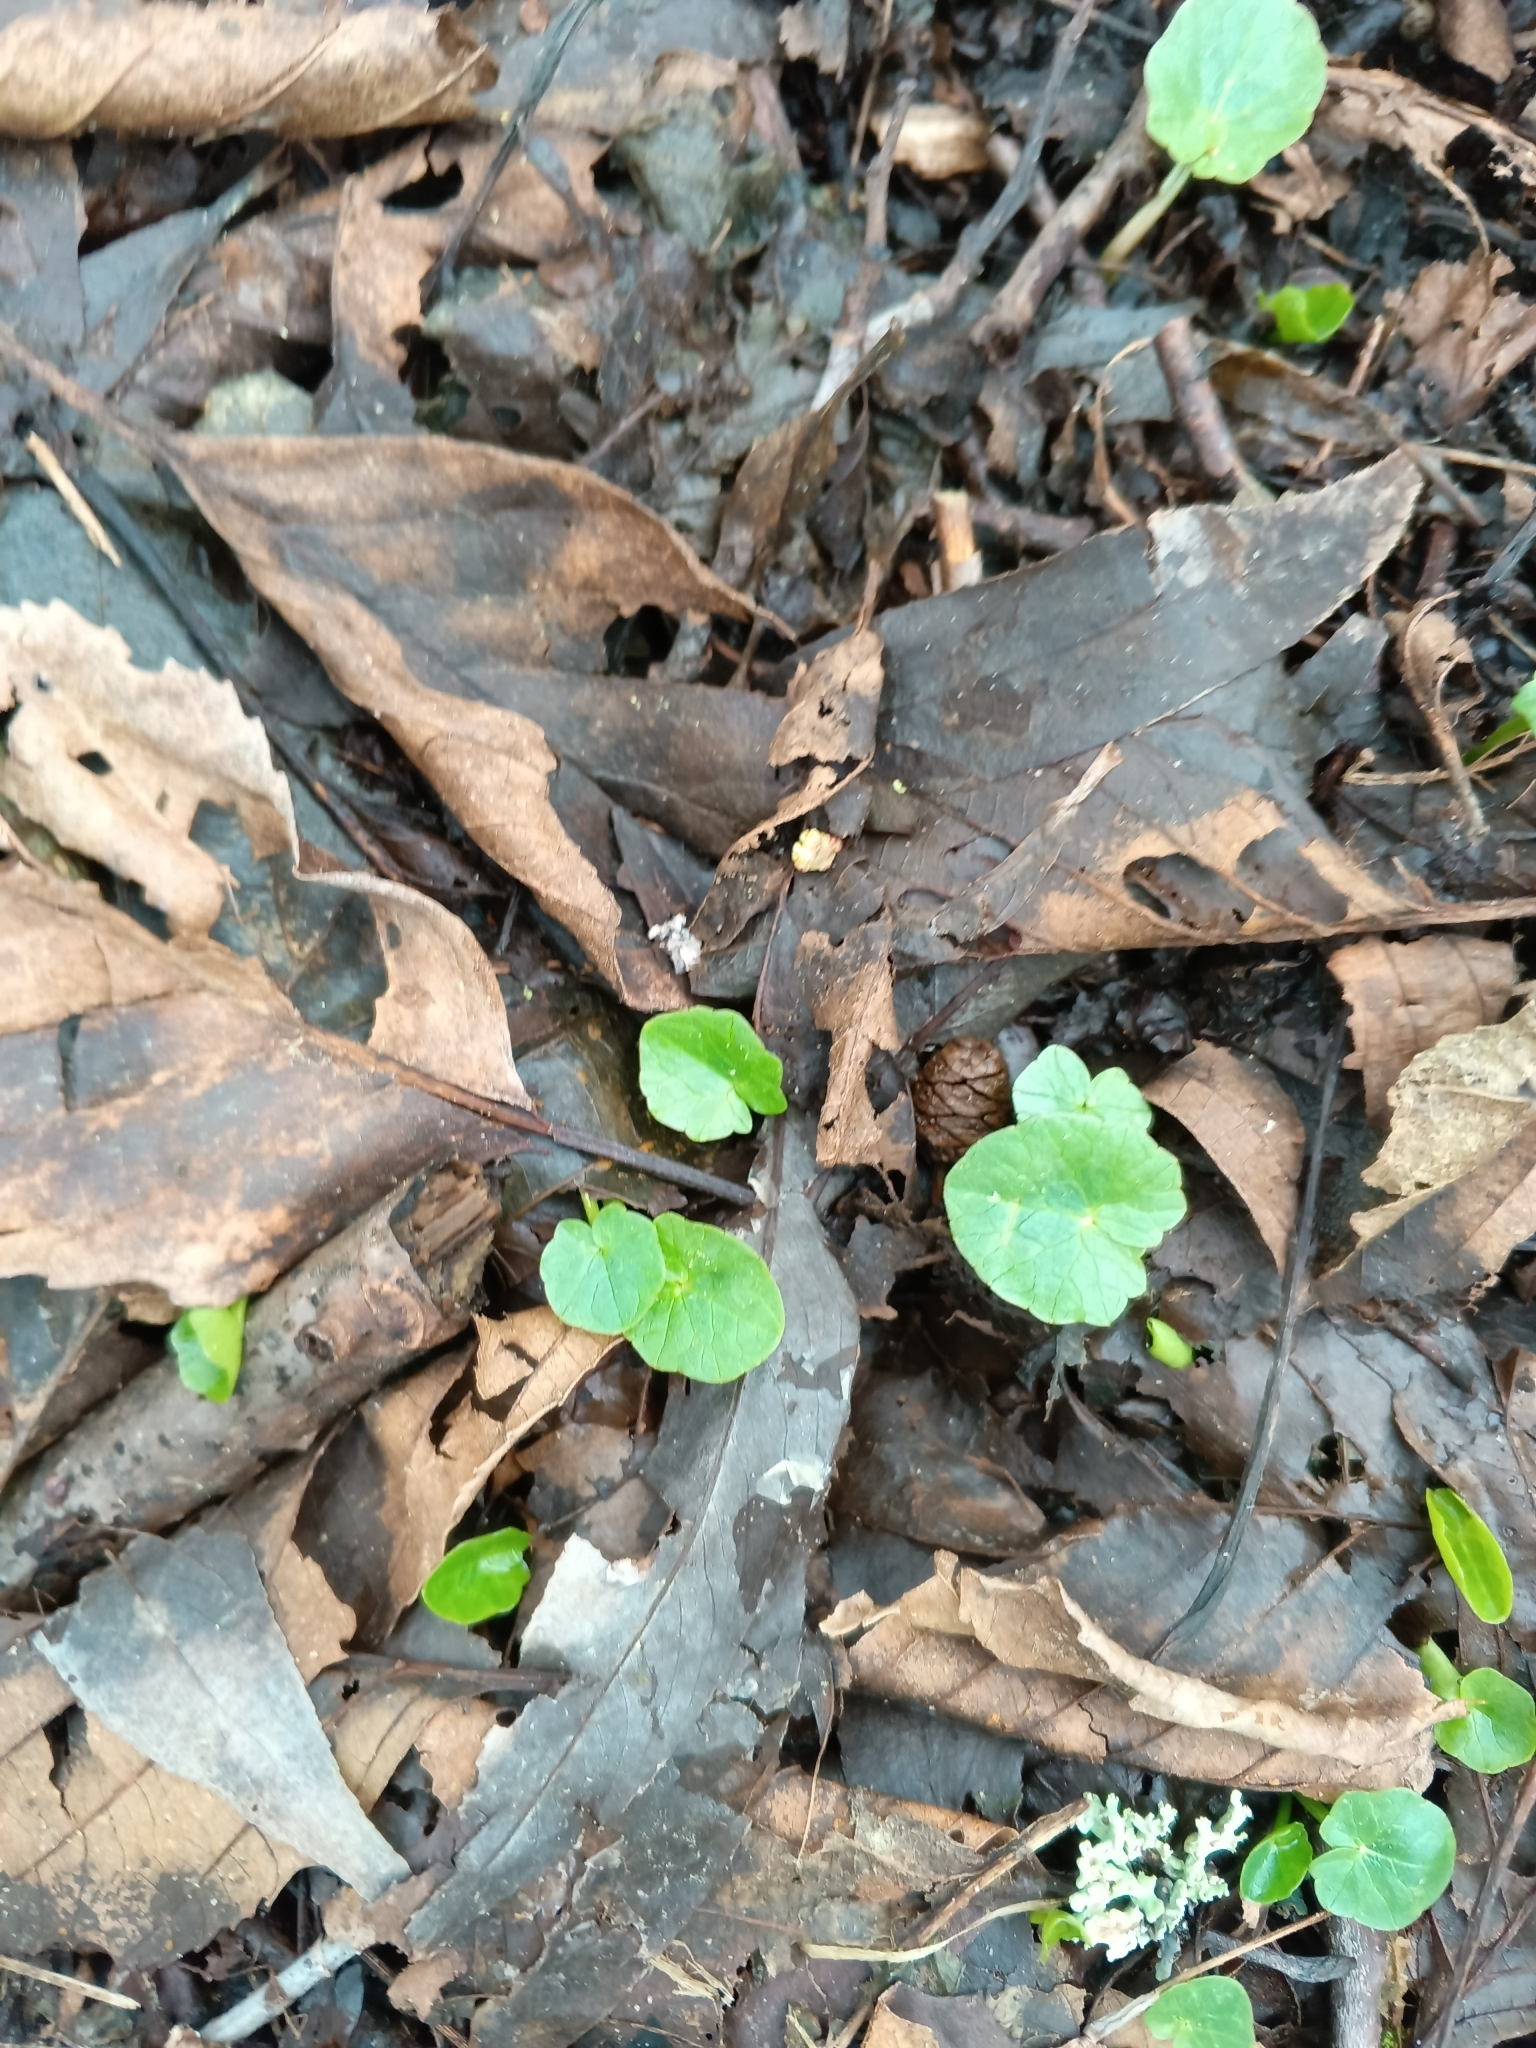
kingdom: Plantae
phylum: Tracheophyta
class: Magnoliopsida
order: Ranunculales
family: Ranunculaceae
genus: Ficaria
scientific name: Ficaria verna
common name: Lesser celandine
